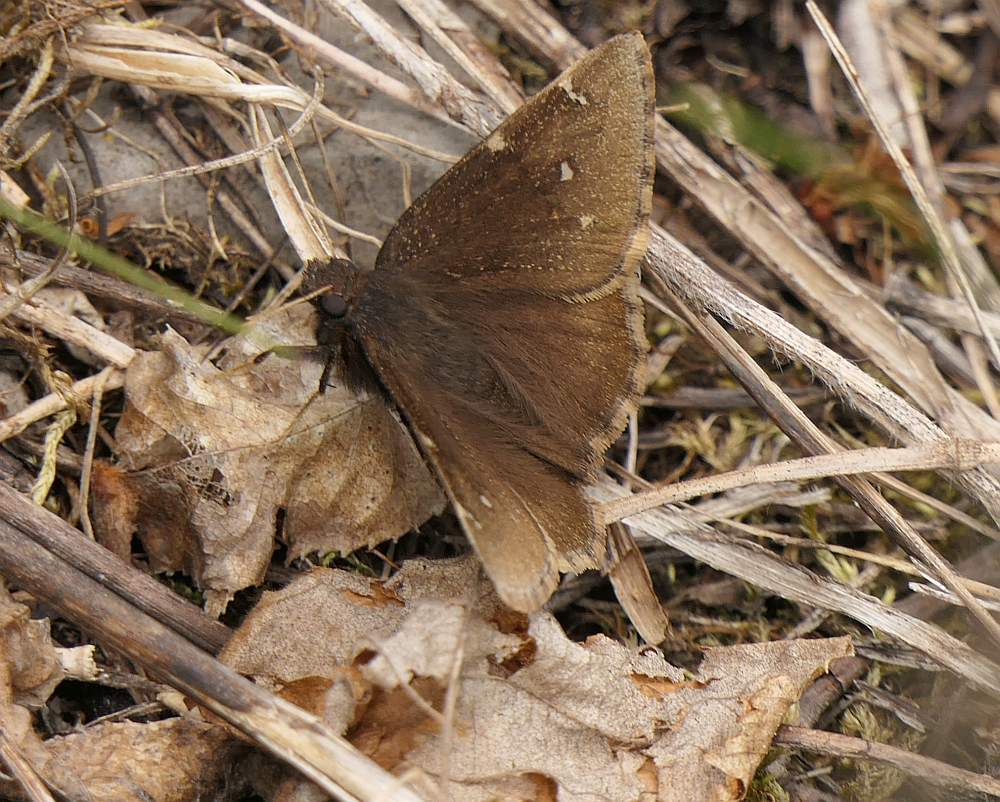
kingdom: Animalia
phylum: Arthropoda
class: Insecta
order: Lepidoptera
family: Hesperiidae
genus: Thorybes
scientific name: Thorybes pylades
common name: Northern cloudywing
